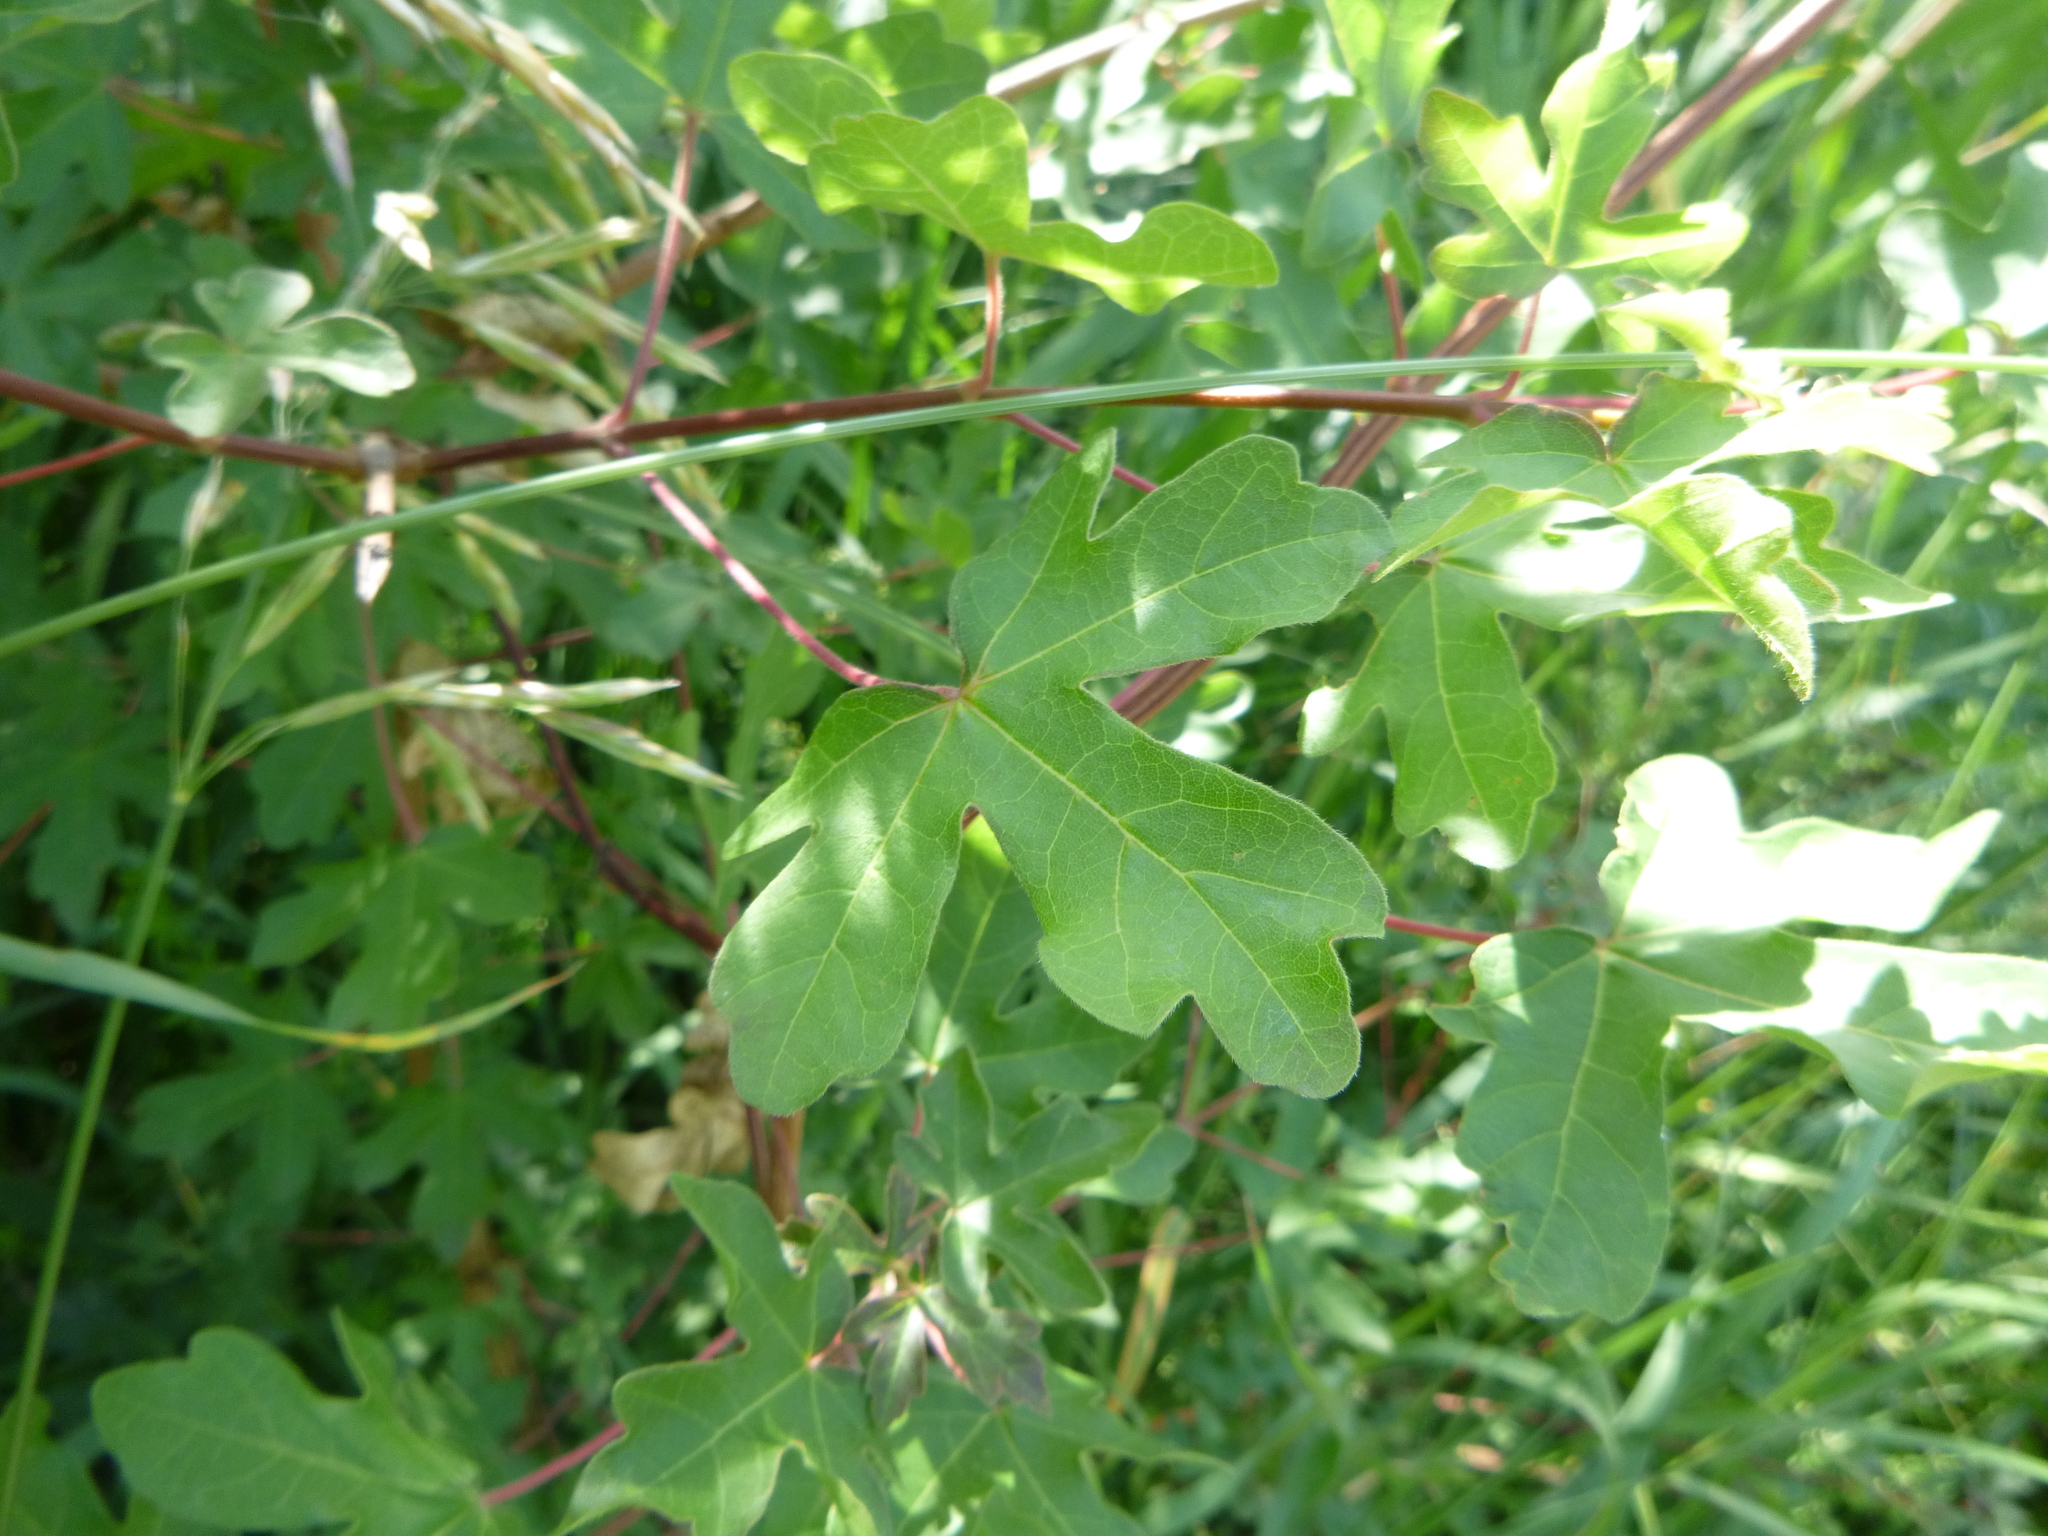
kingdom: Plantae
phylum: Tracheophyta
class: Magnoliopsida
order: Sapindales
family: Sapindaceae
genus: Acer
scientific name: Acer campestre
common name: Field maple
